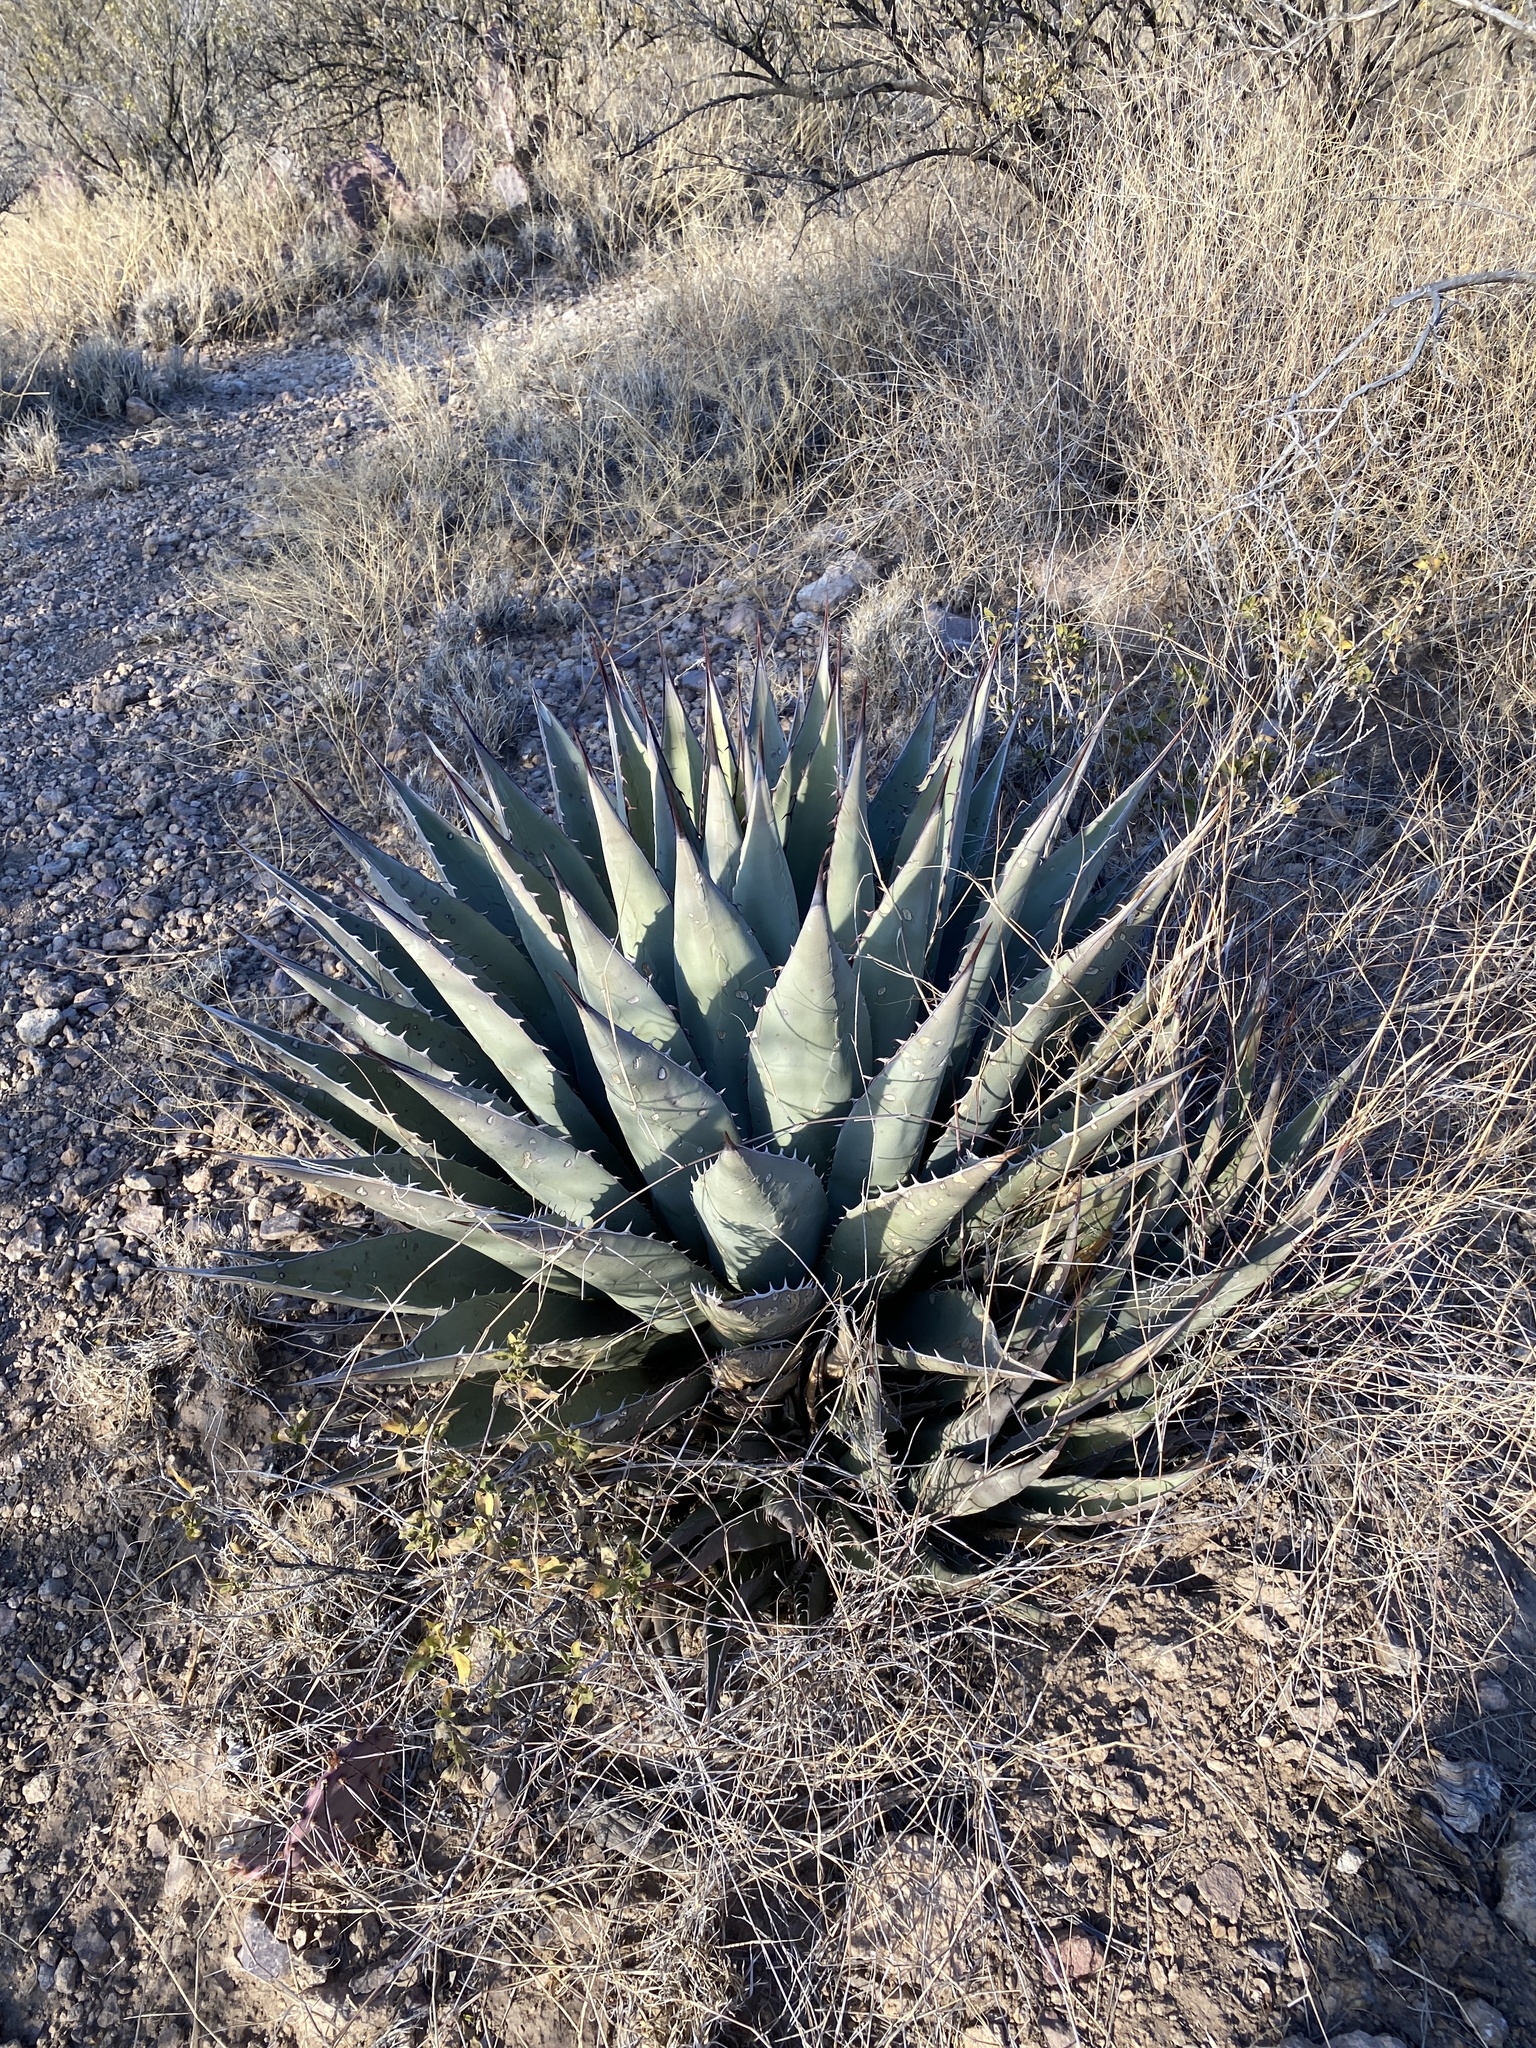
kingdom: Plantae
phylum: Tracheophyta
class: Liliopsida
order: Asparagales
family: Asparagaceae
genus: Agave
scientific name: Agave parryi
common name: Parry's agave
